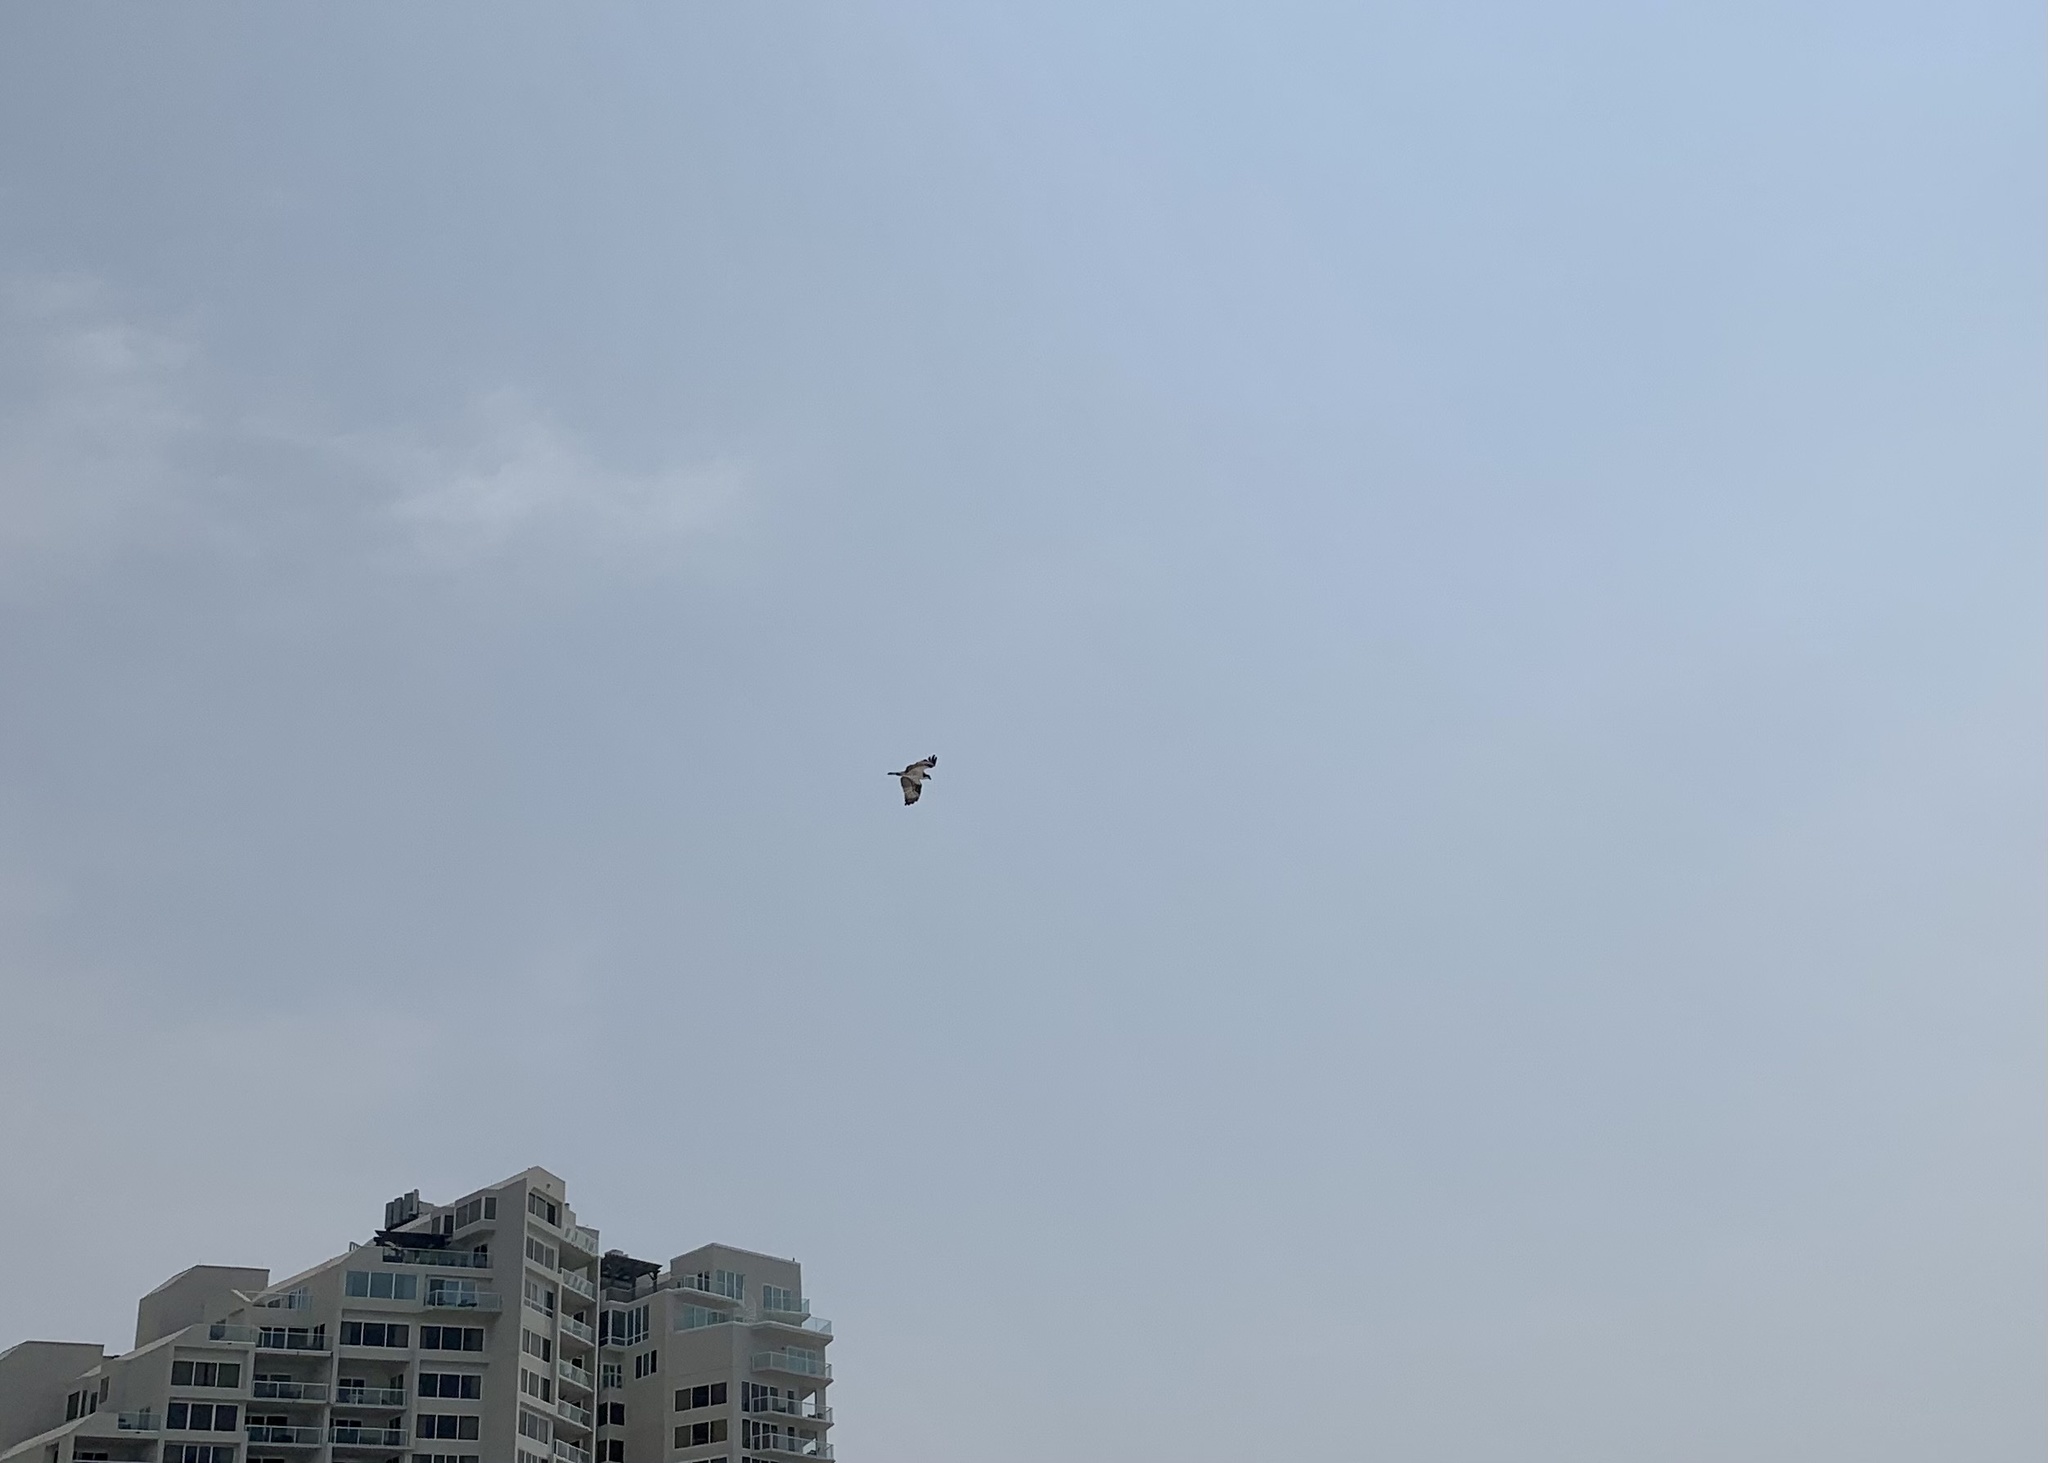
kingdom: Animalia
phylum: Chordata
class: Aves
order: Accipitriformes
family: Pandionidae
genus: Pandion
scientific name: Pandion haliaetus
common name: Osprey
